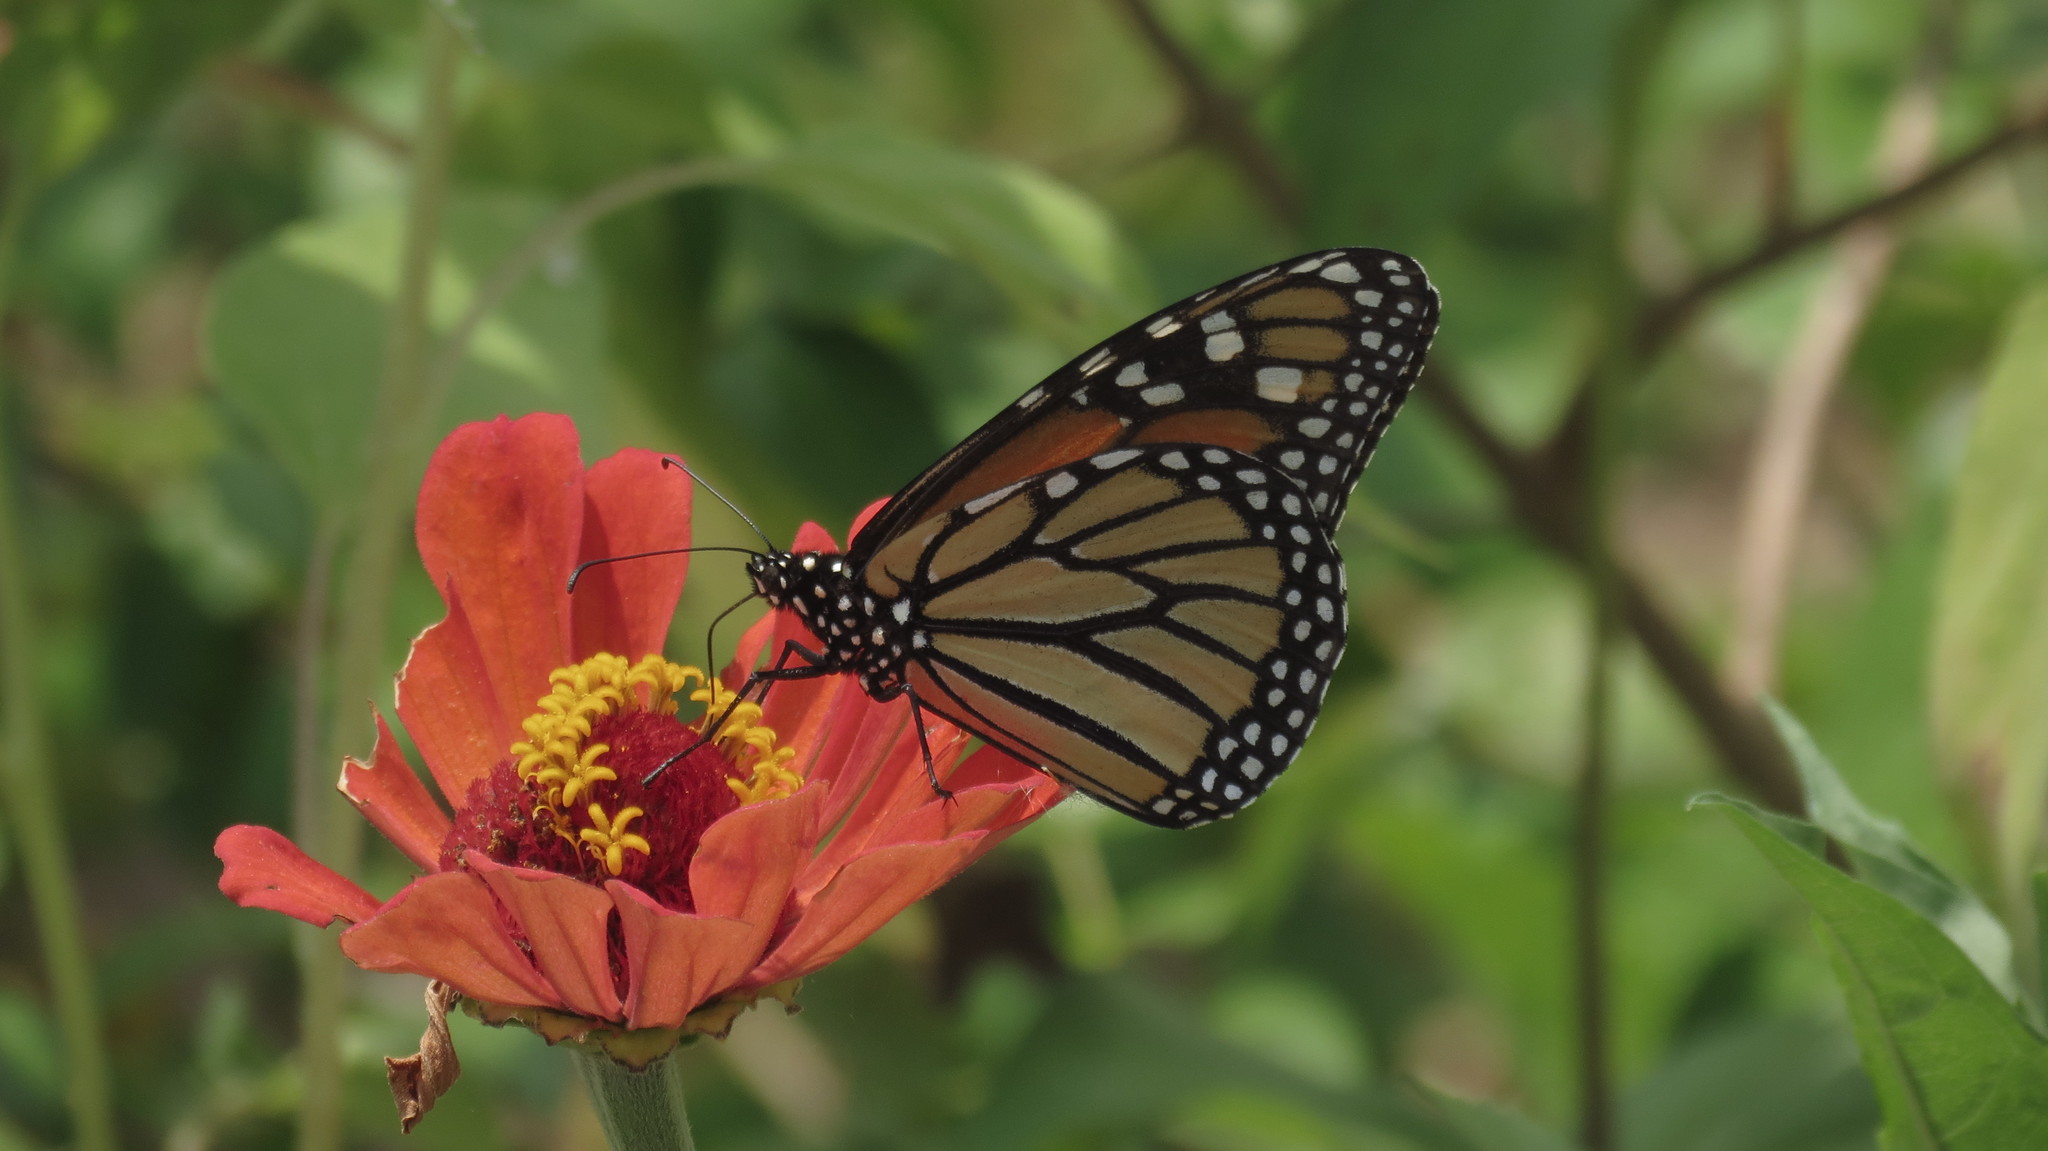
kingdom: Animalia
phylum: Arthropoda
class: Insecta
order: Lepidoptera
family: Nymphalidae
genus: Danaus
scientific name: Danaus plexippus
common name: Monarch
